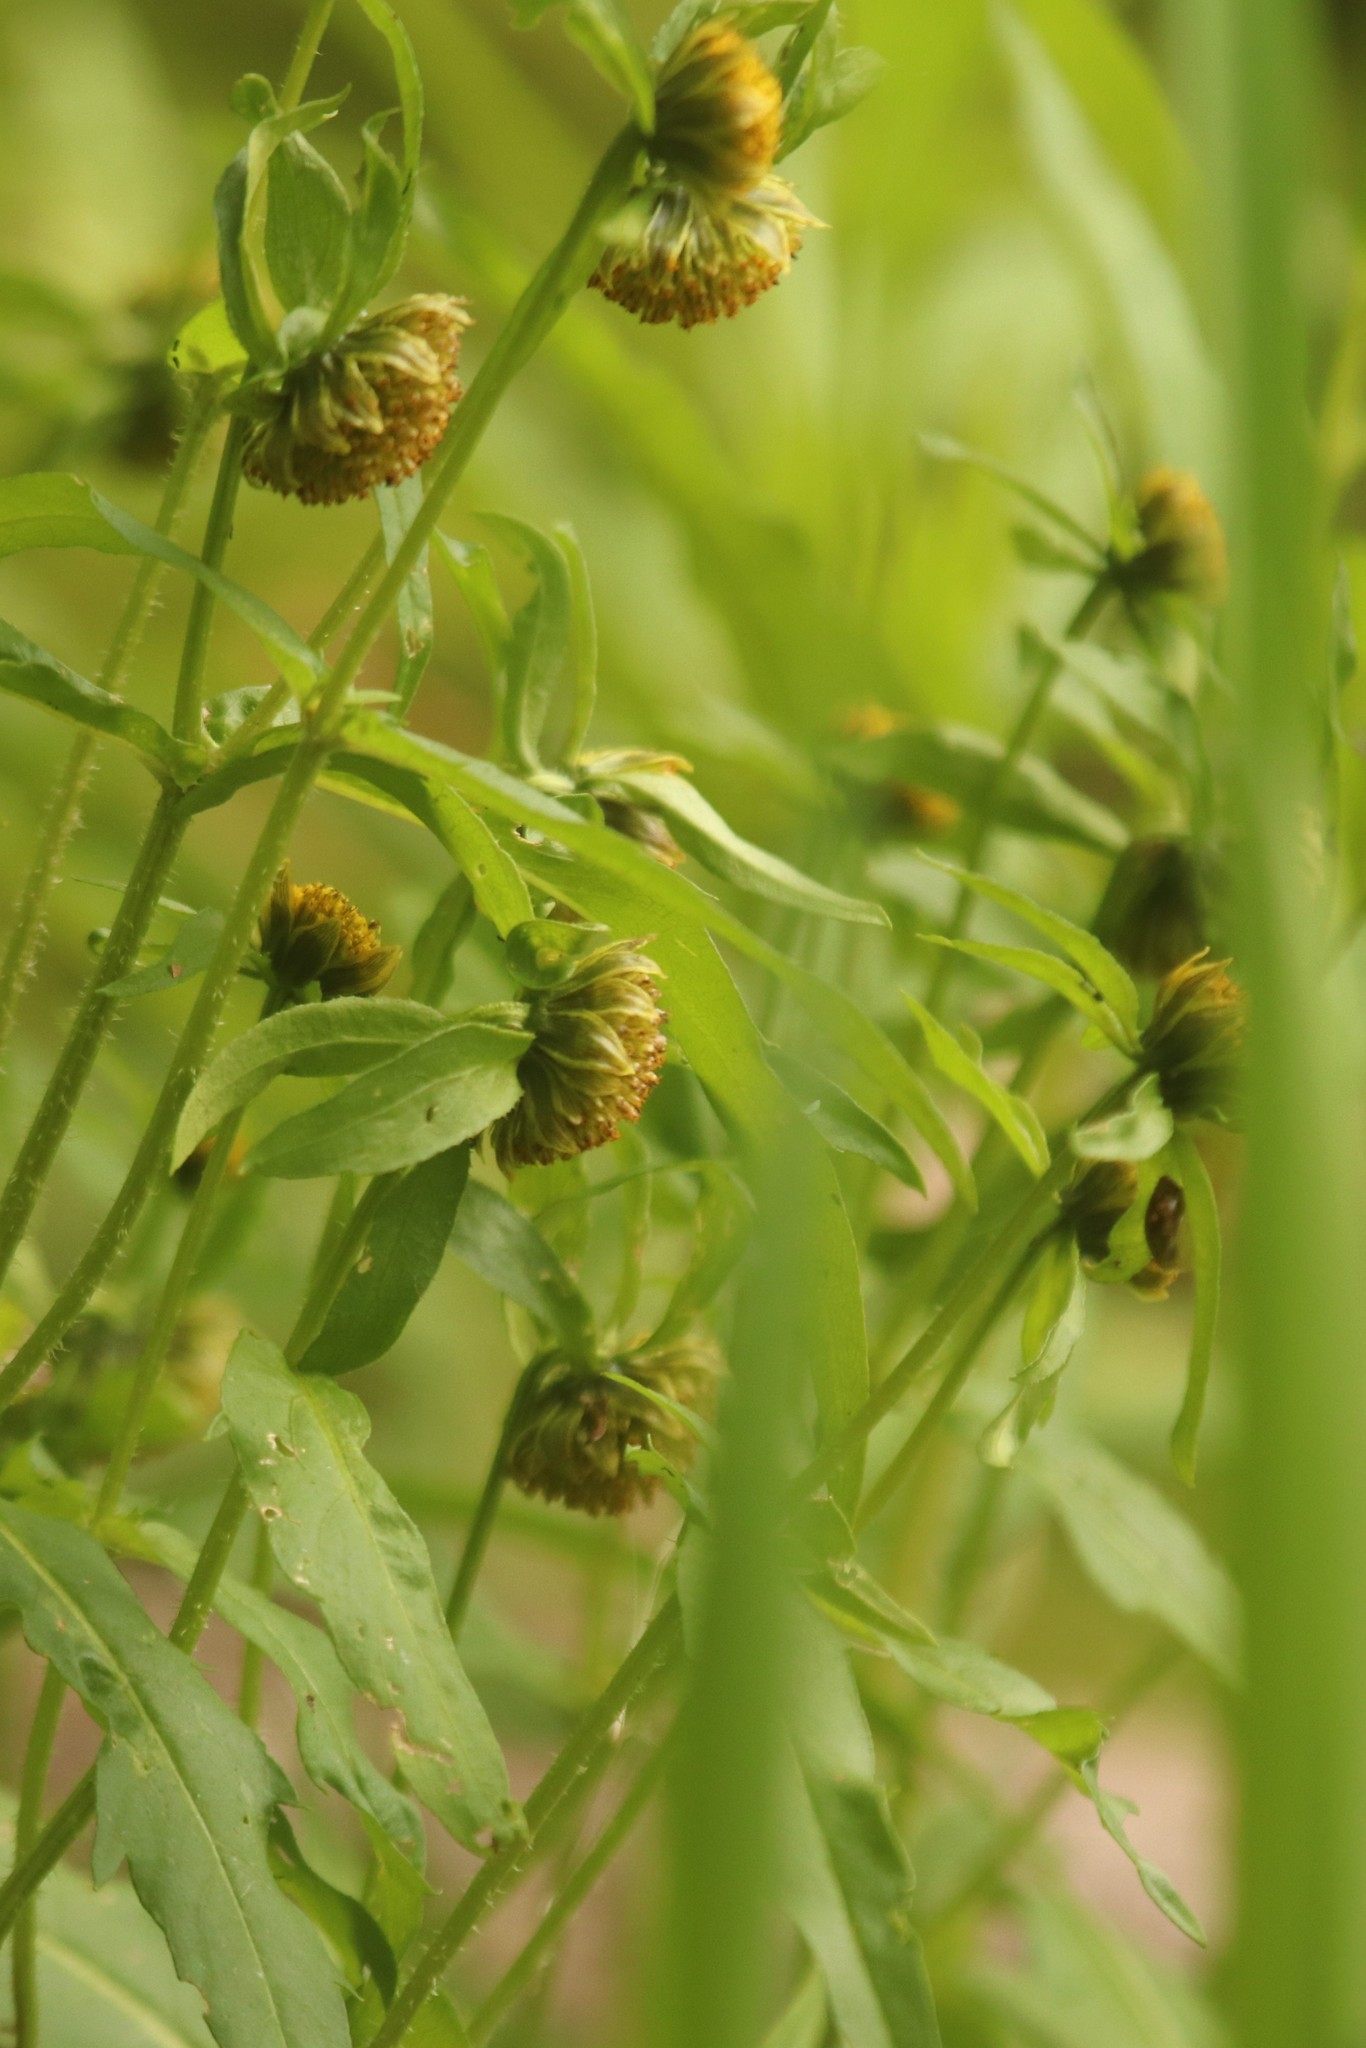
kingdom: Plantae
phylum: Tracheophyta
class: Magnoliopsida
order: Asterales
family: Asteraceae
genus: Bidens
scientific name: Bidens cernua
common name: Nodding bur-marigold
